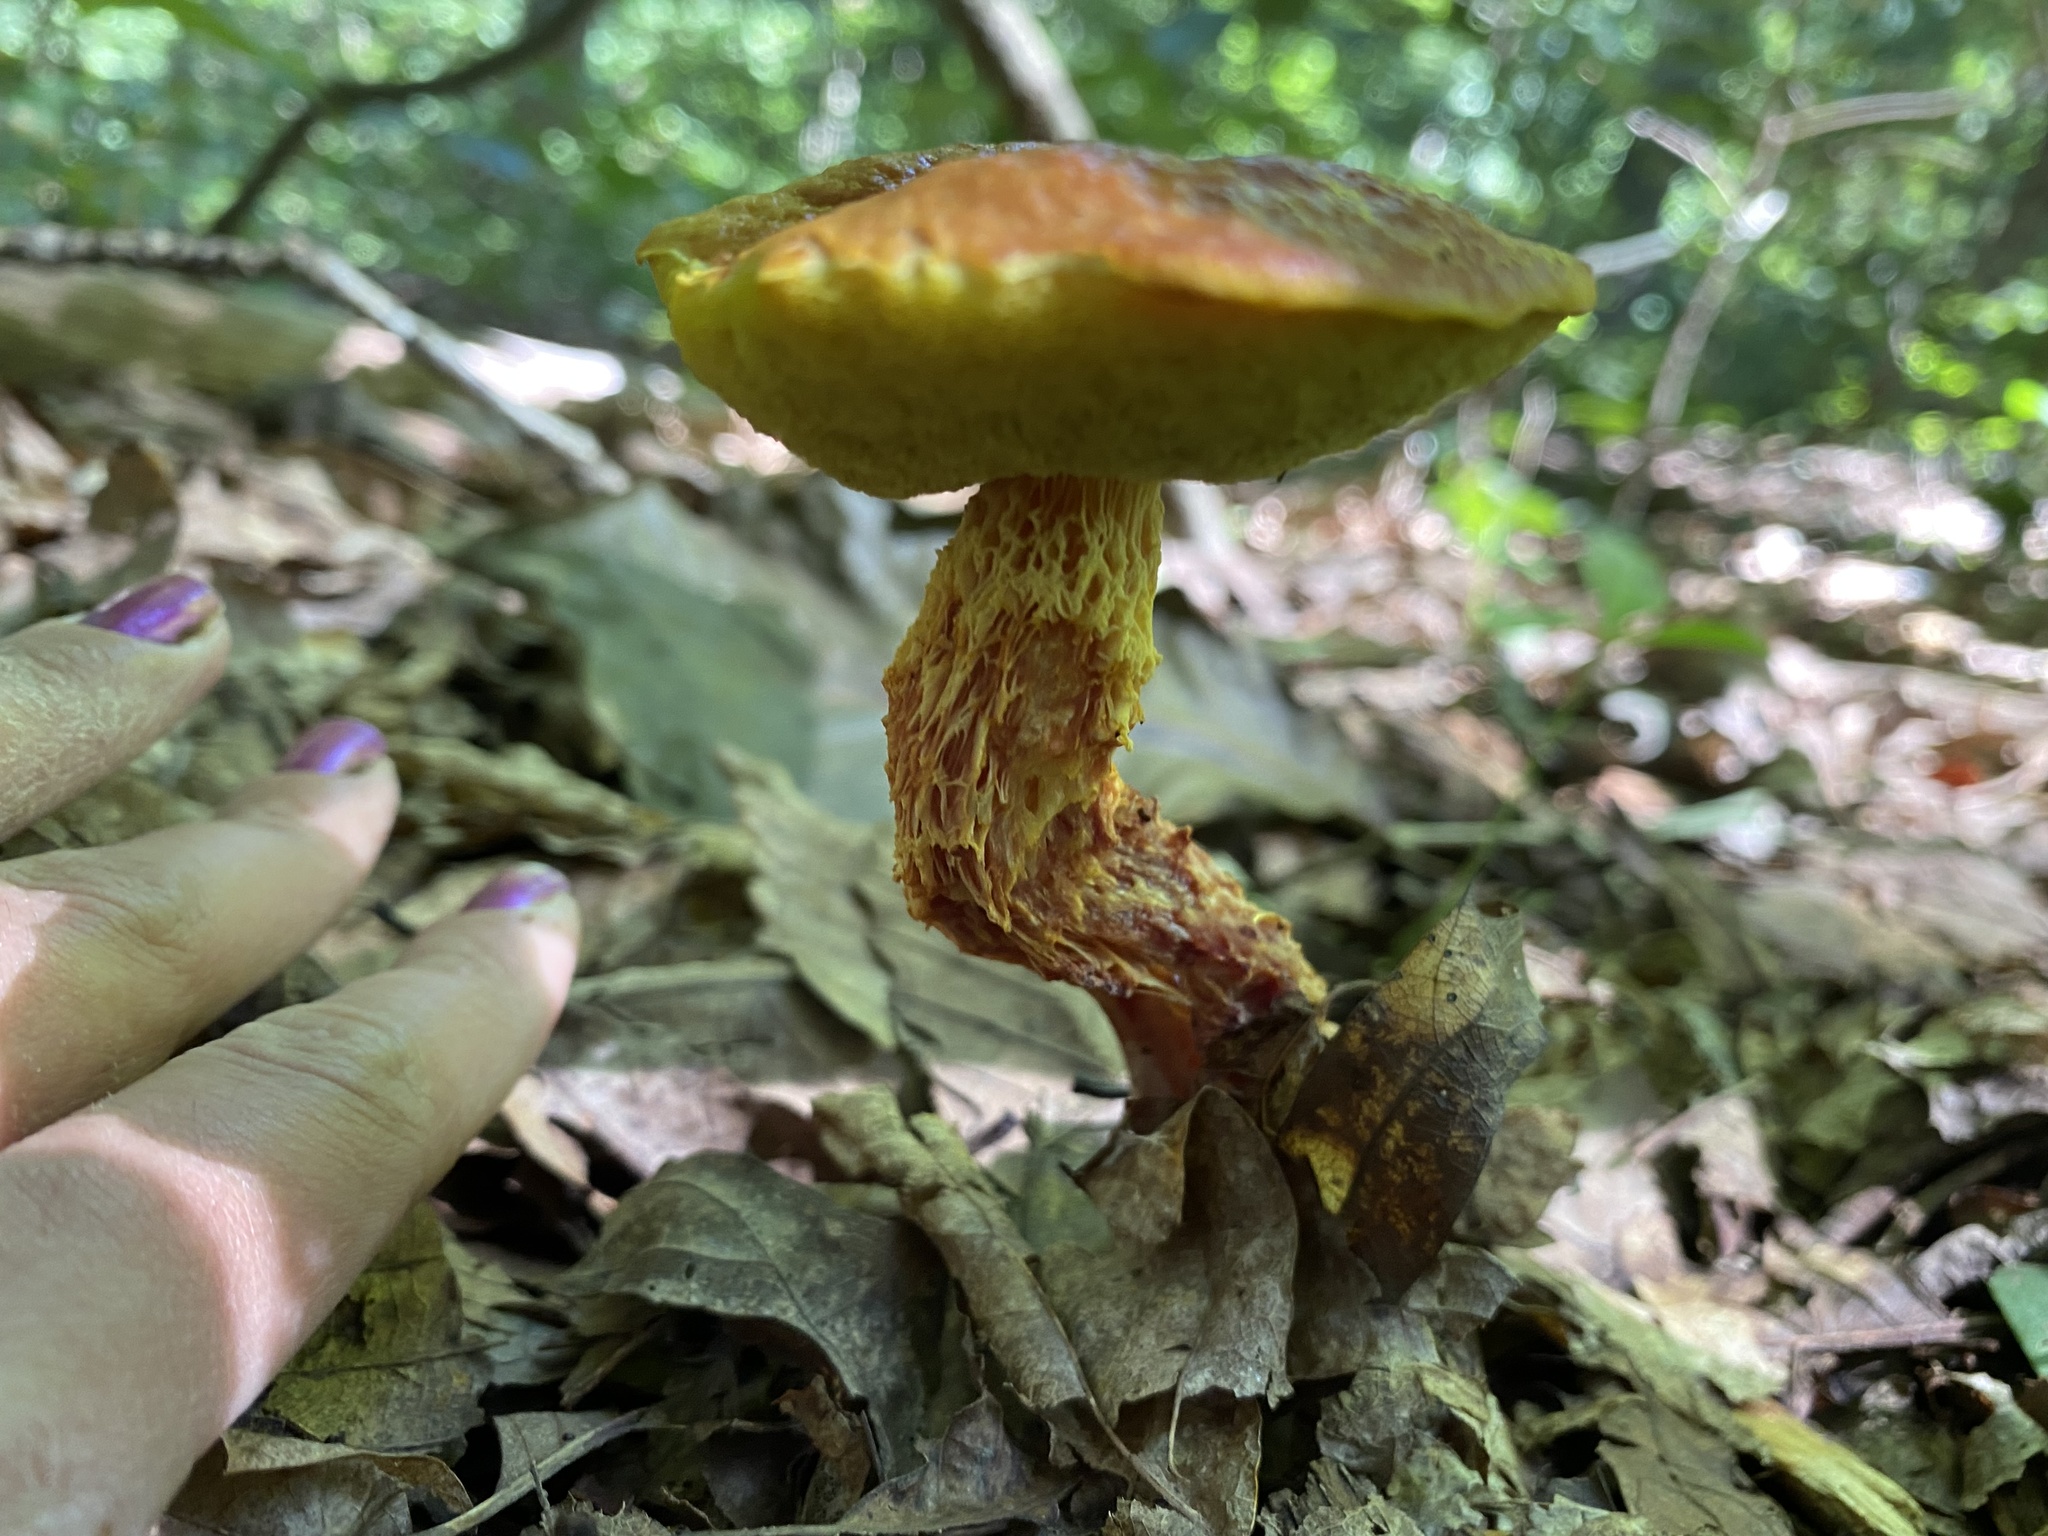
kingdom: Fungi
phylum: Basidiomycota
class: Agaricomycetes
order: Boletales
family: Boletaceae
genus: Aureoboletus
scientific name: Aureoboletus betula
